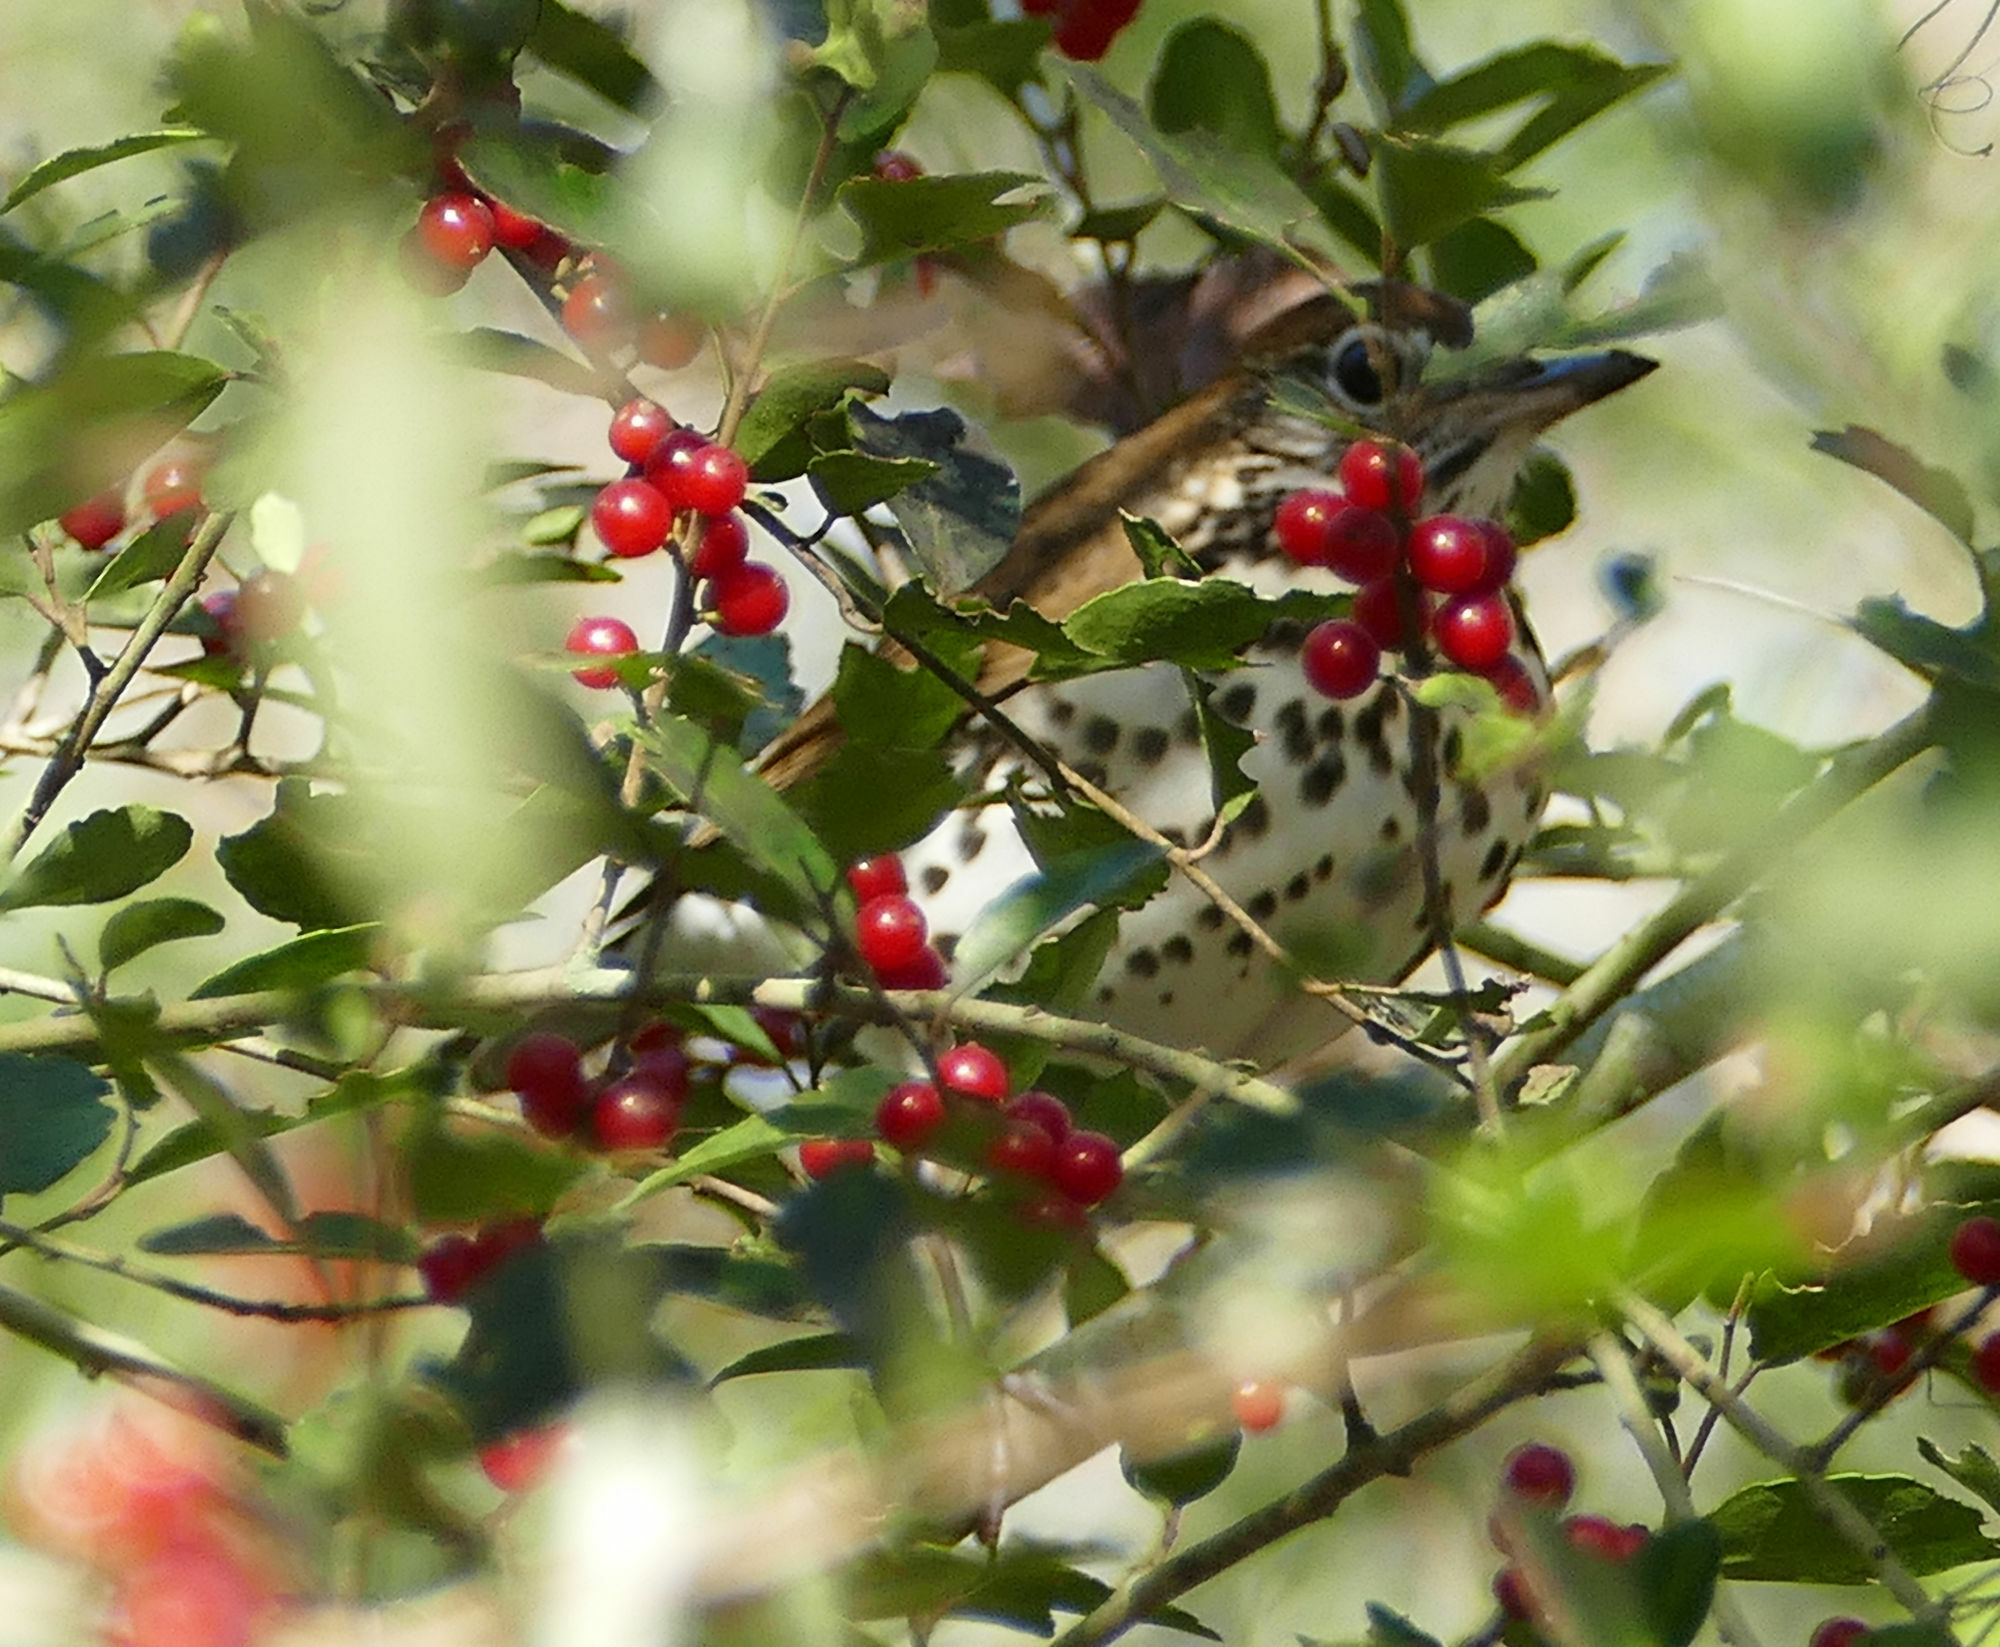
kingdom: Animalia
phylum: Chordata
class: Aves
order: Passeriformes
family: Turdidae
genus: Hylocichla
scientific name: Hylocichla mustelina
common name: Wood thrush
